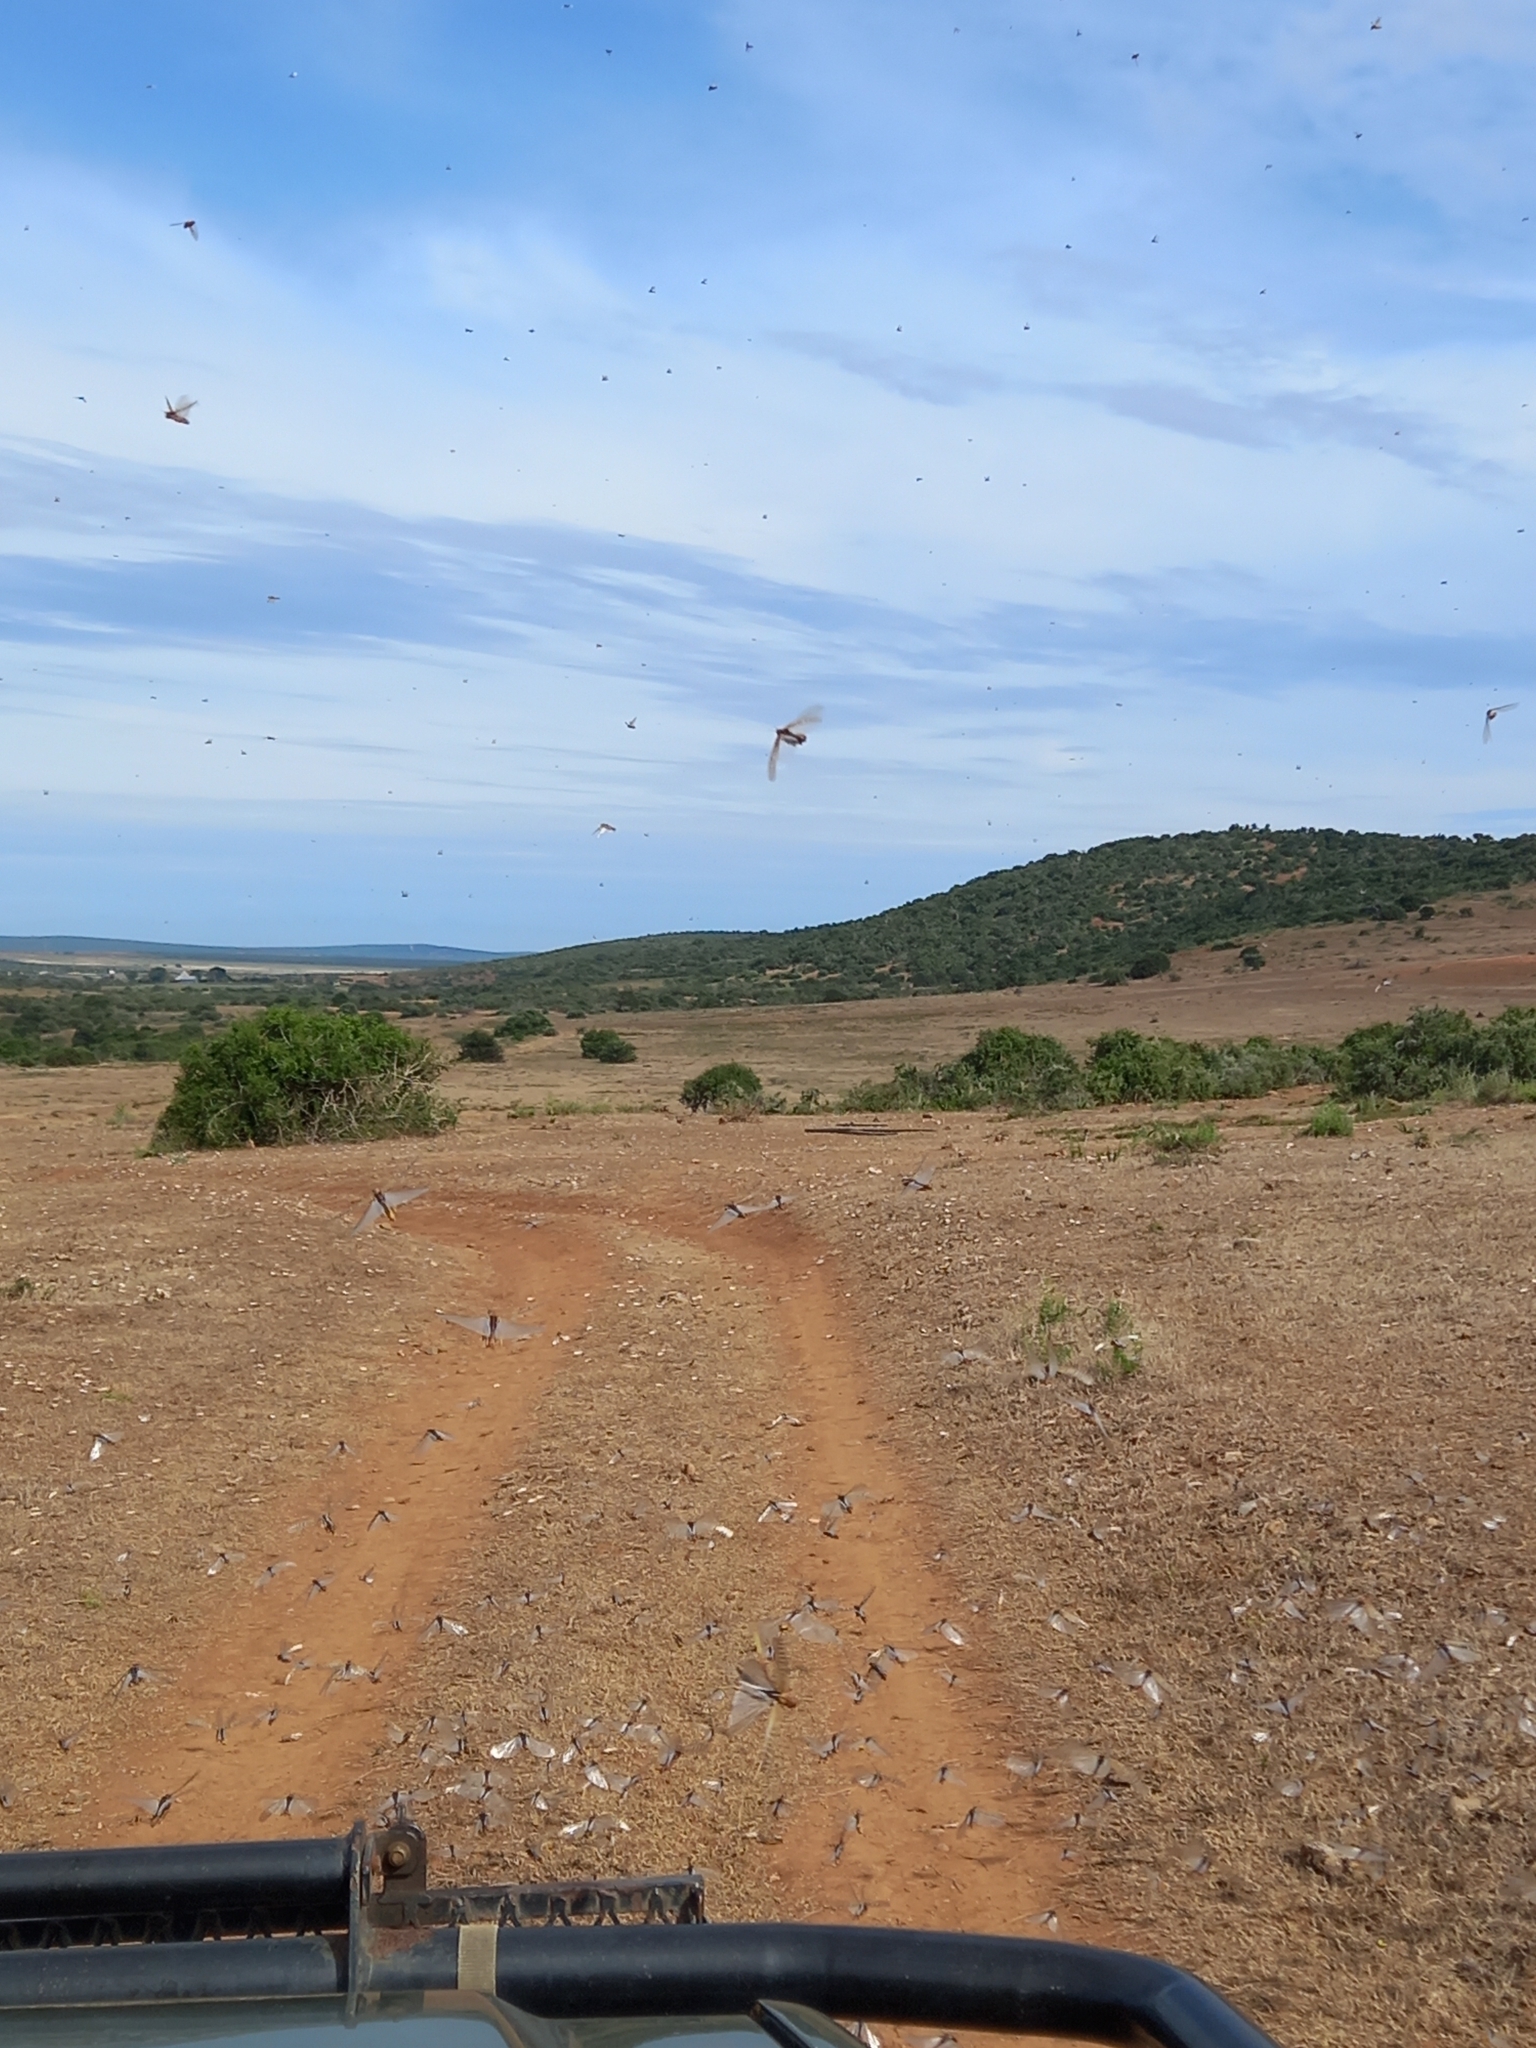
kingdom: Animalia
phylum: Arthropoda
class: Insecta
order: Orthoptera
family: Acrididae
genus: Locustana
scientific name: Locustana pardalina
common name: Brown locust
